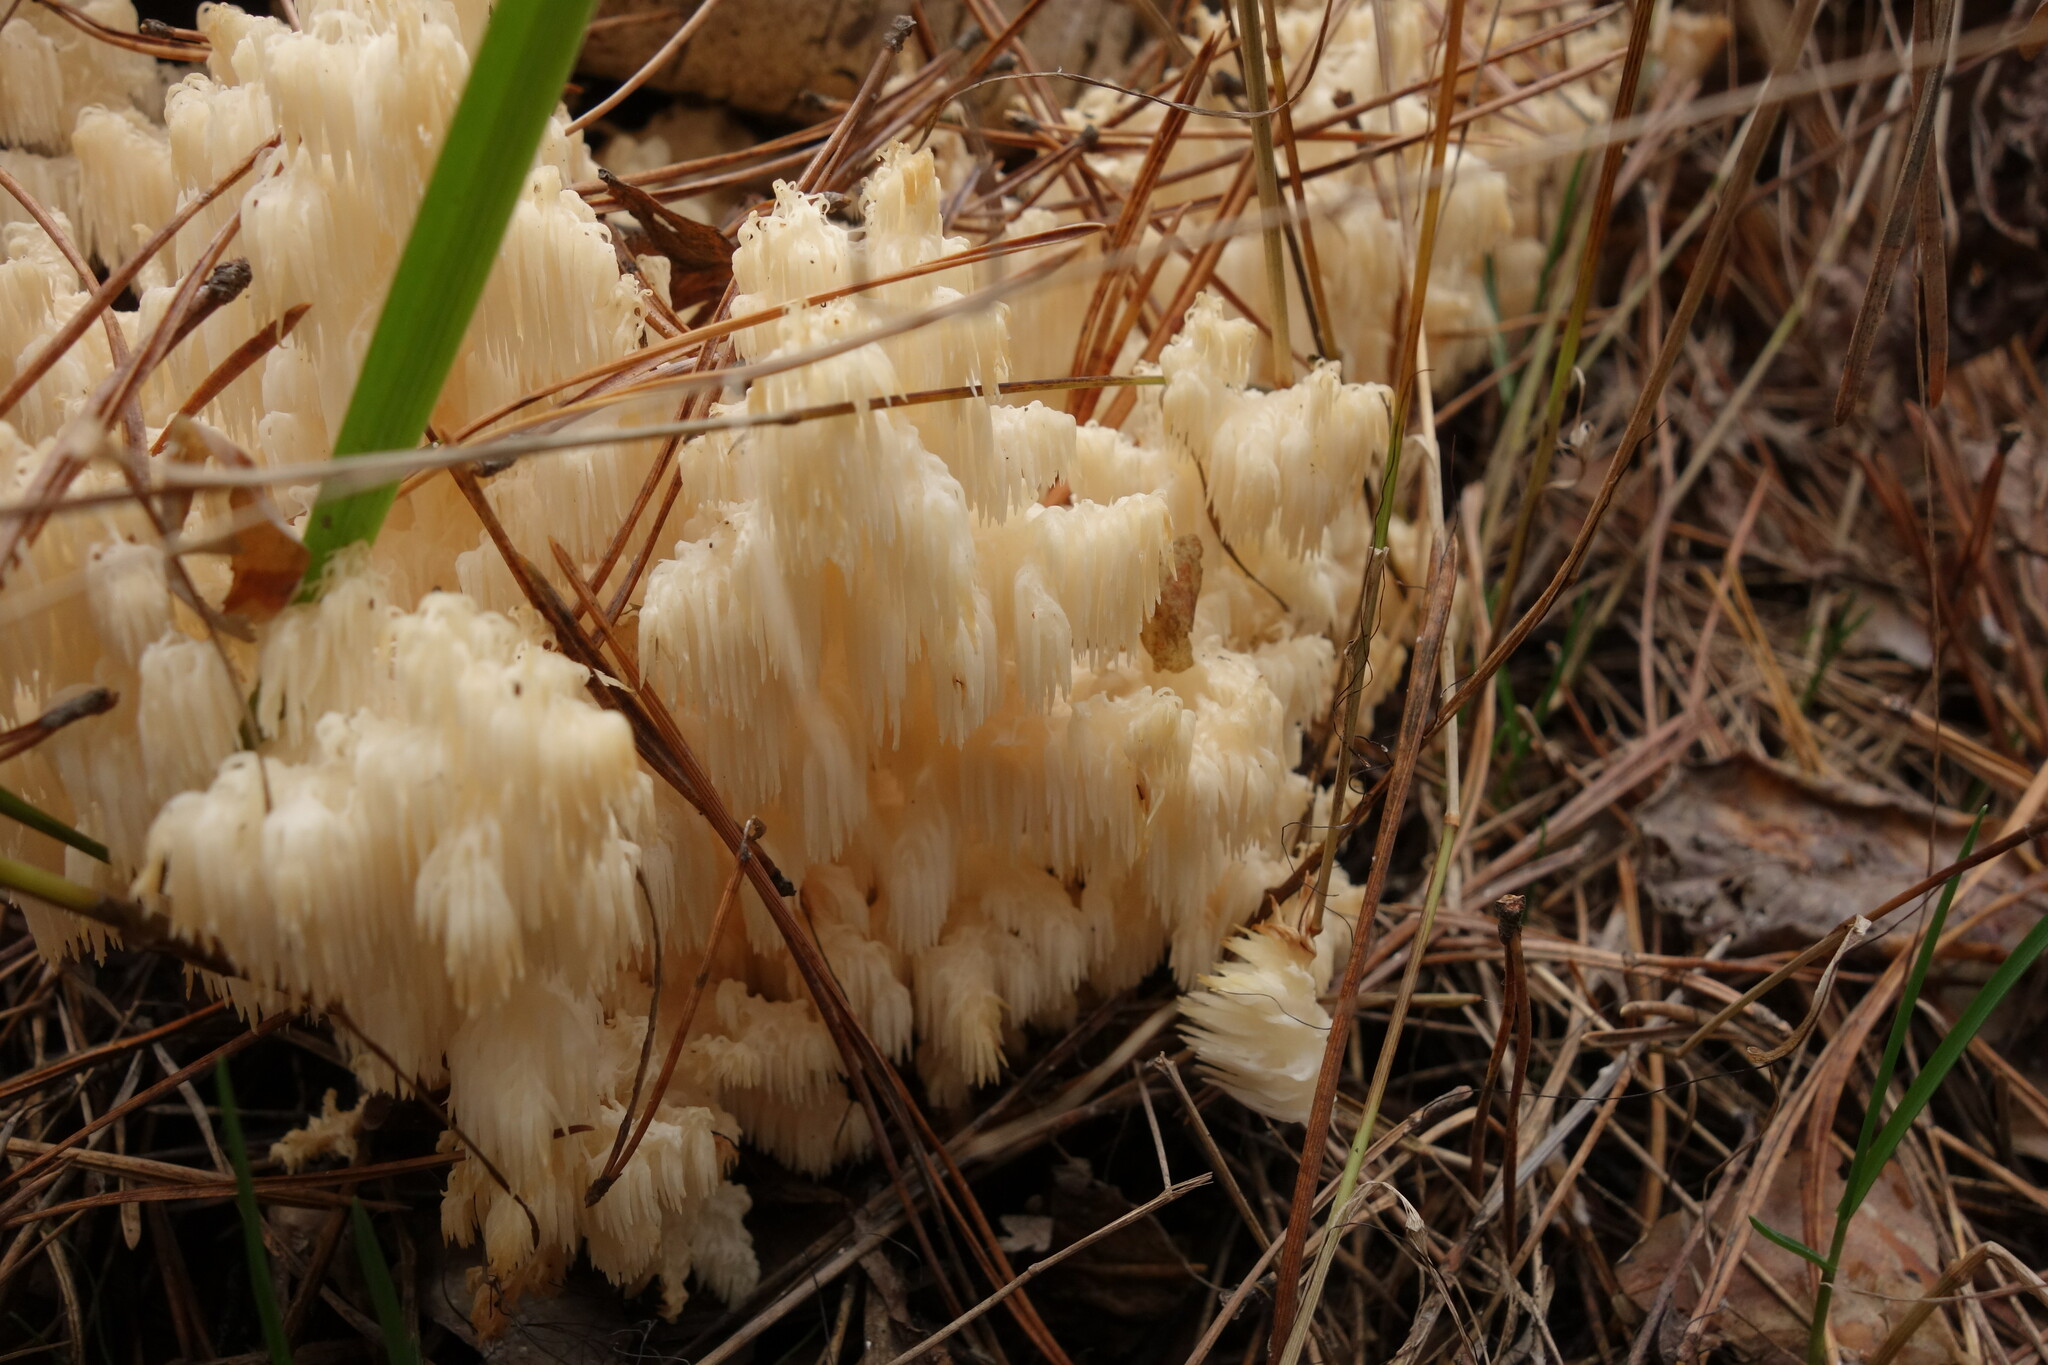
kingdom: Fungi
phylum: Basidiomycota
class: Agaricomycetes
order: Russulales
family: Hericiaceae
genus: Hericium
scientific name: Hericium coralloides
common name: Coral tooth
